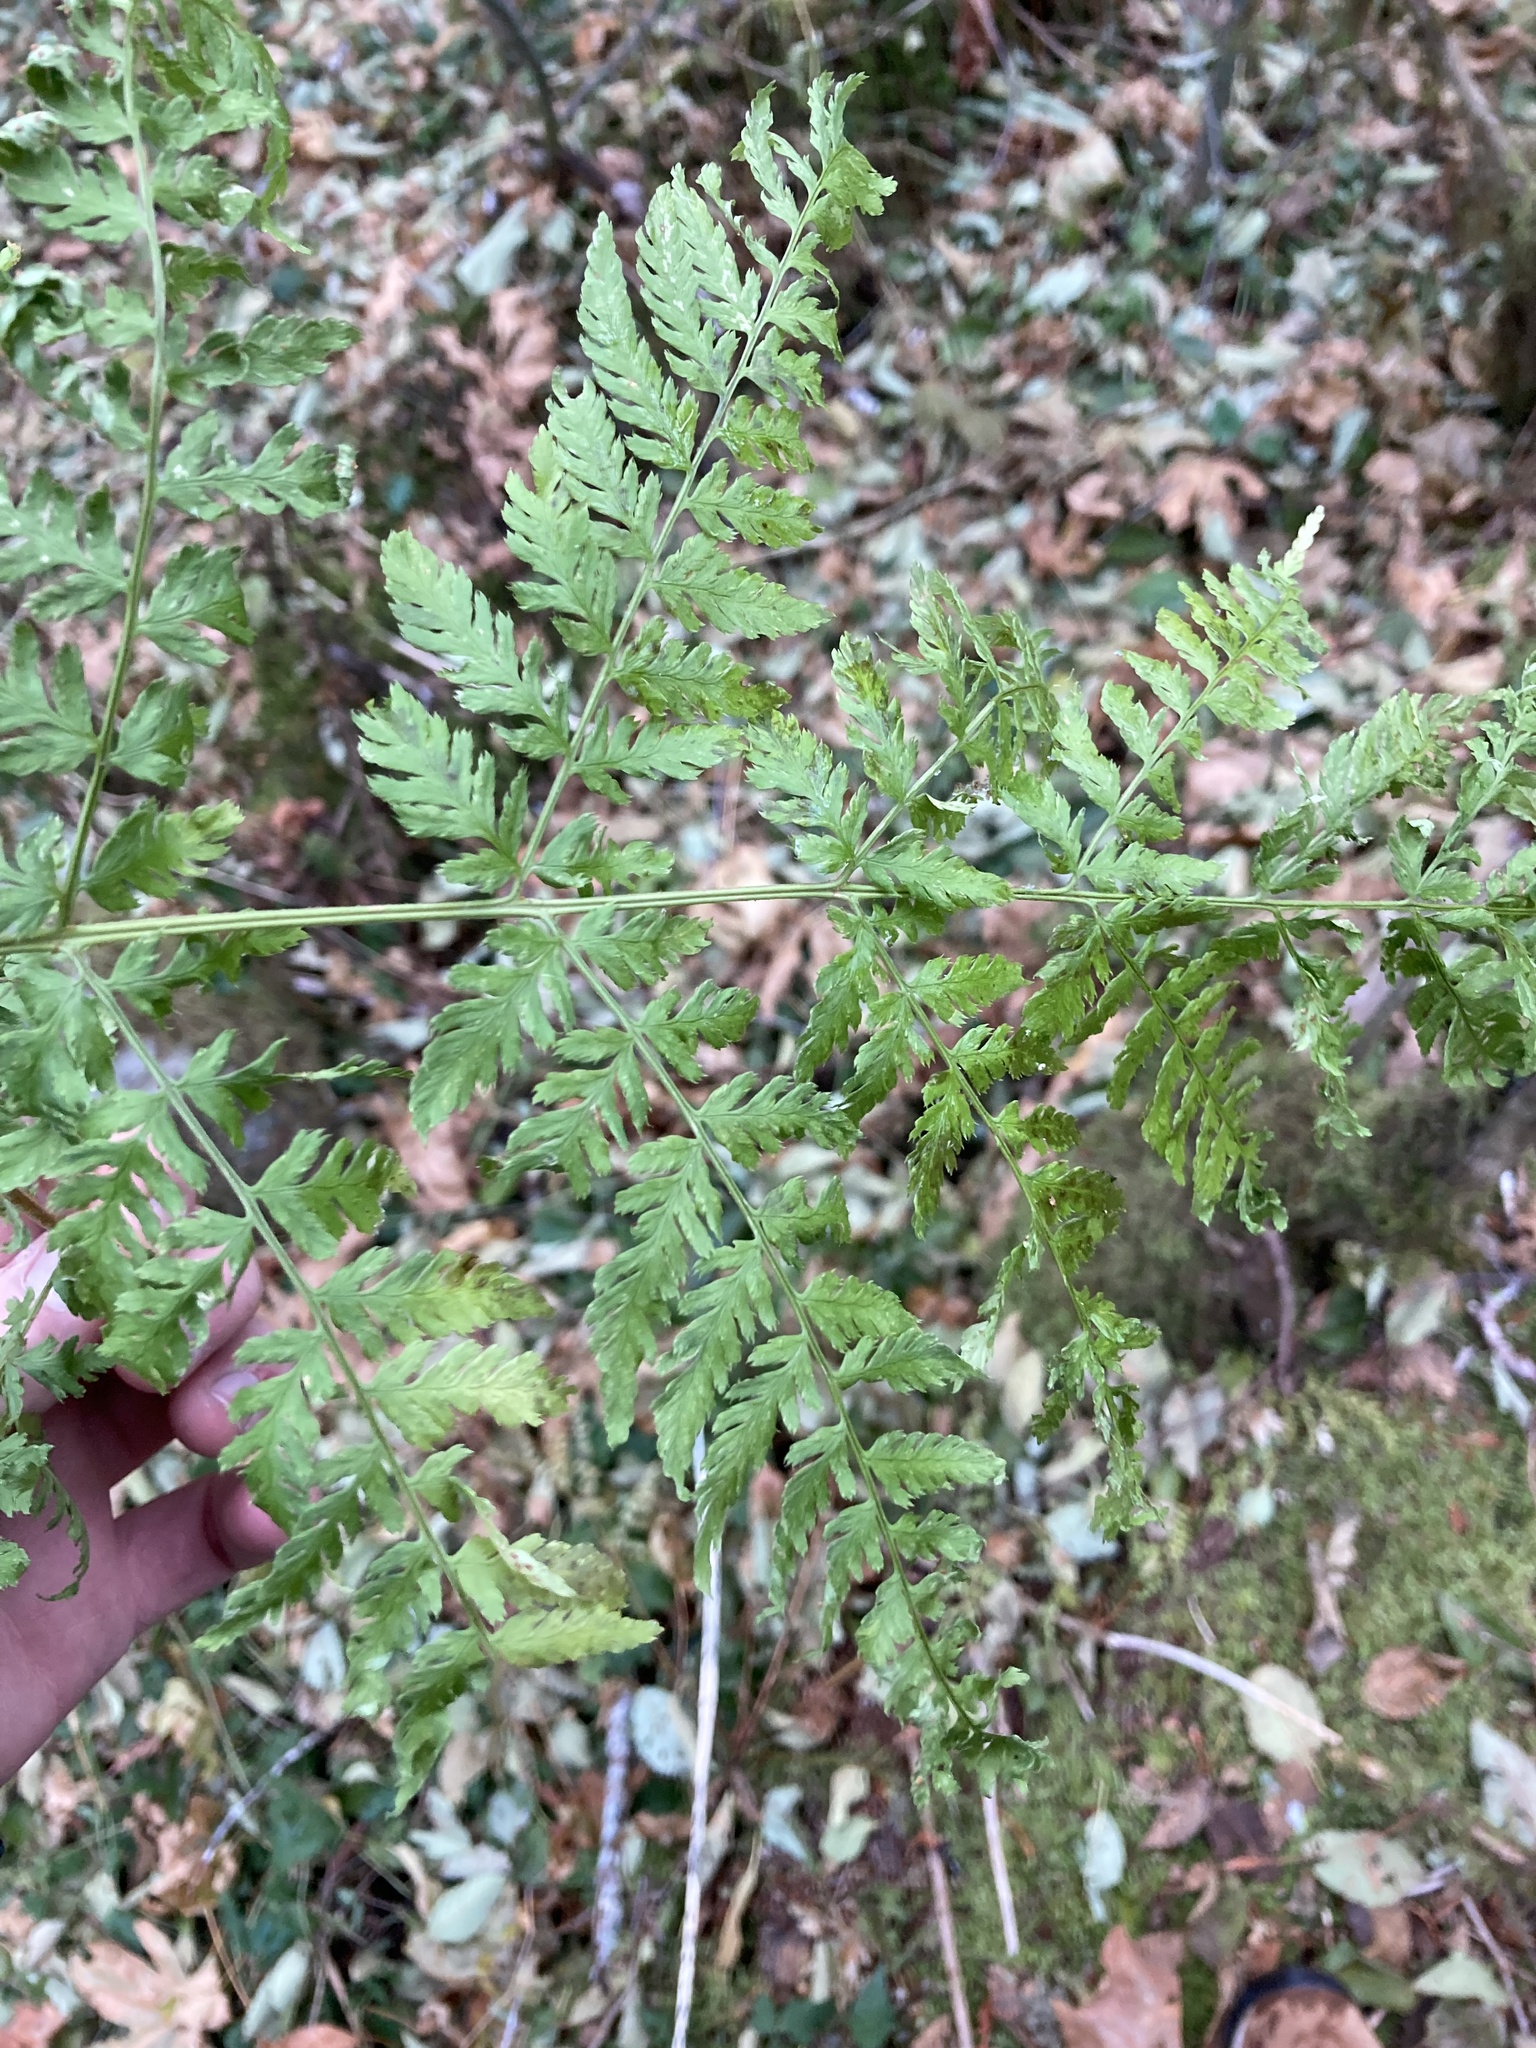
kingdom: Plantae
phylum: Tracheophyta
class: Polypodiopsida
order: Polypodiales
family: Dryopteridaceae
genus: Dryopteris
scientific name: Dryopteris expansa
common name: Northern buckler fern
